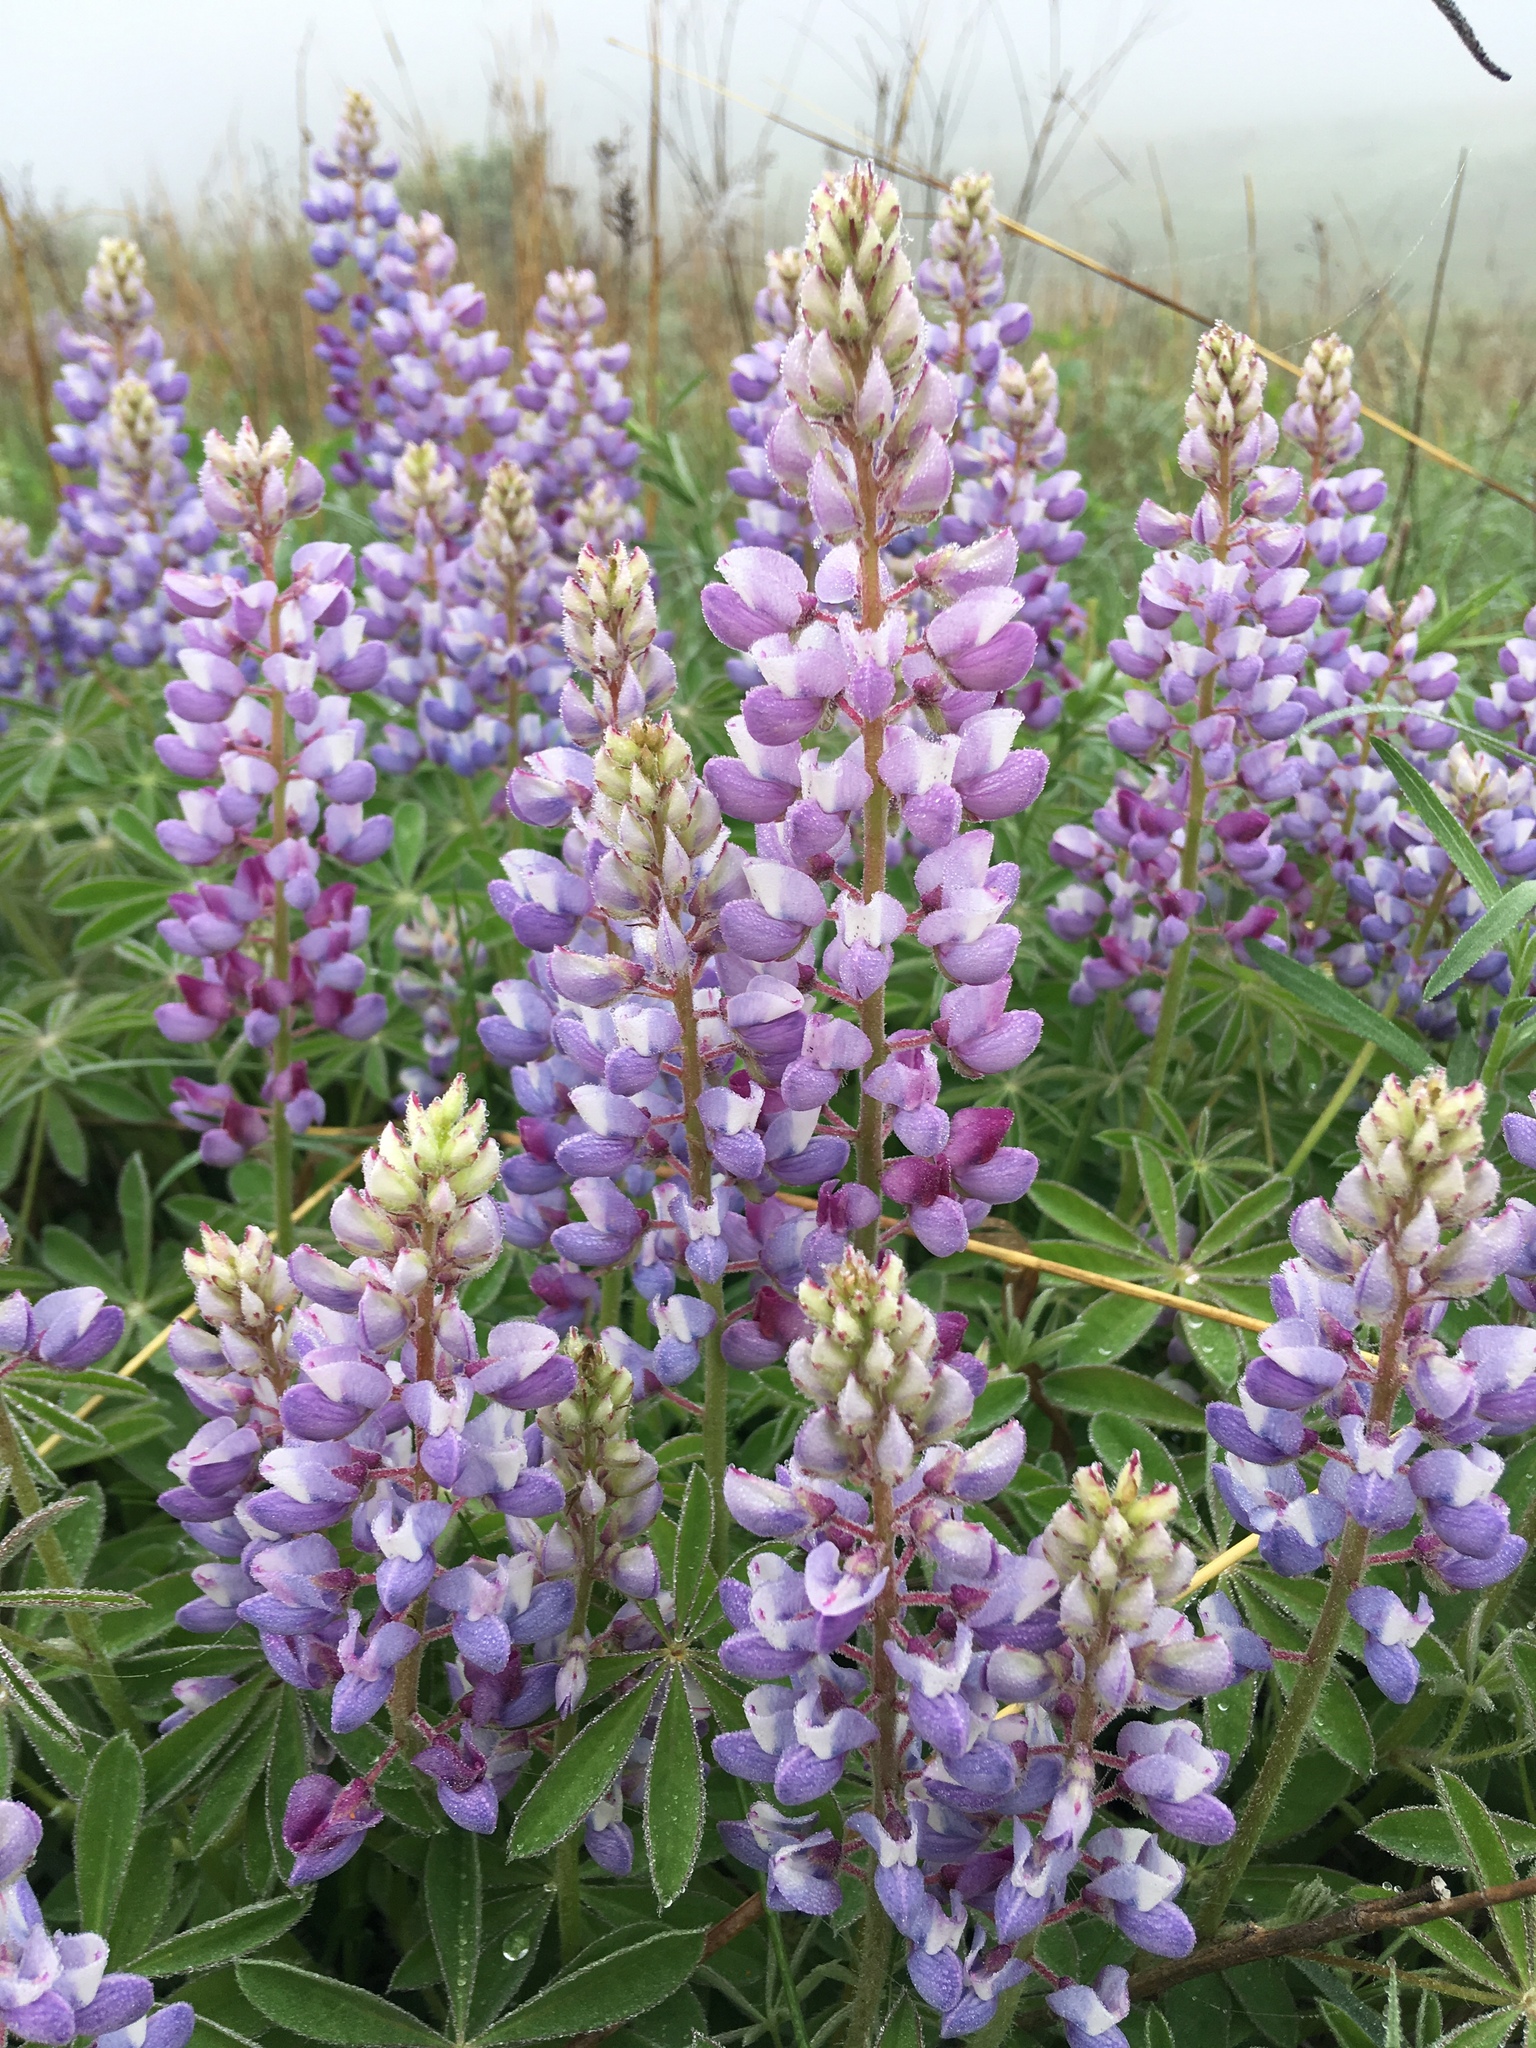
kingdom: Plantae
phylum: Tracheophyta
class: Magnoliopsida
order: Fabales
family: Fabaceae
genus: Lupinus
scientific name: Lupinus perennis
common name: Sundial lupine
